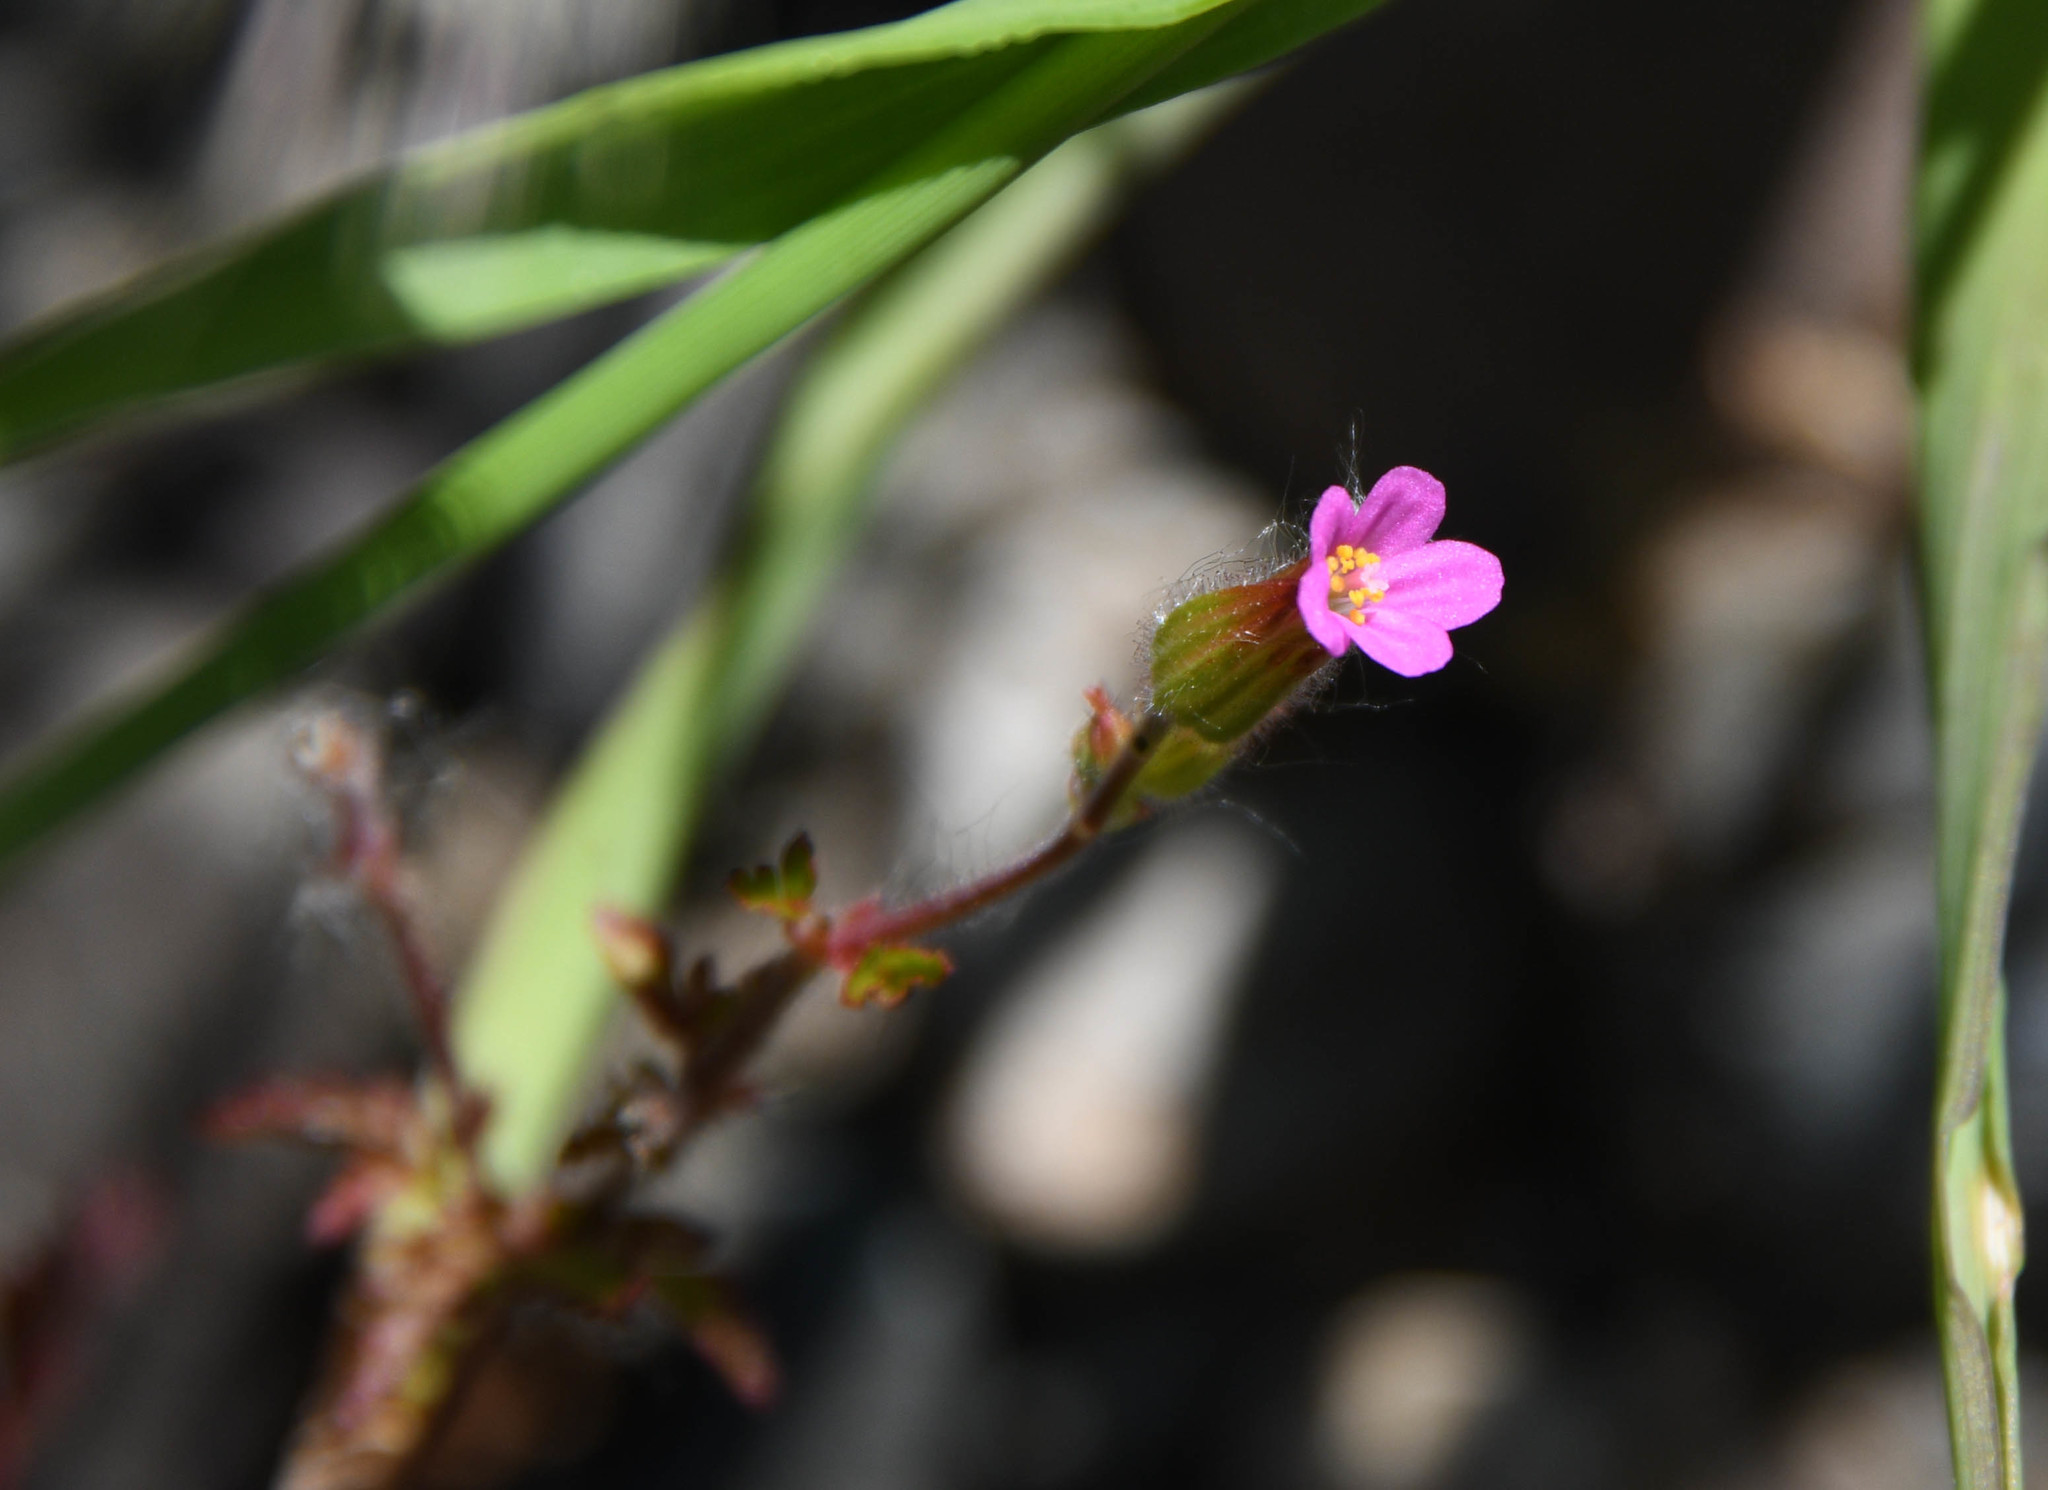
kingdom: Plantae
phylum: Tracheophyta
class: Magnoliopsida
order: Geraniales
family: Geraniaceae
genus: Geranium
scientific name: Geranium purpureum
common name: Little-robin
